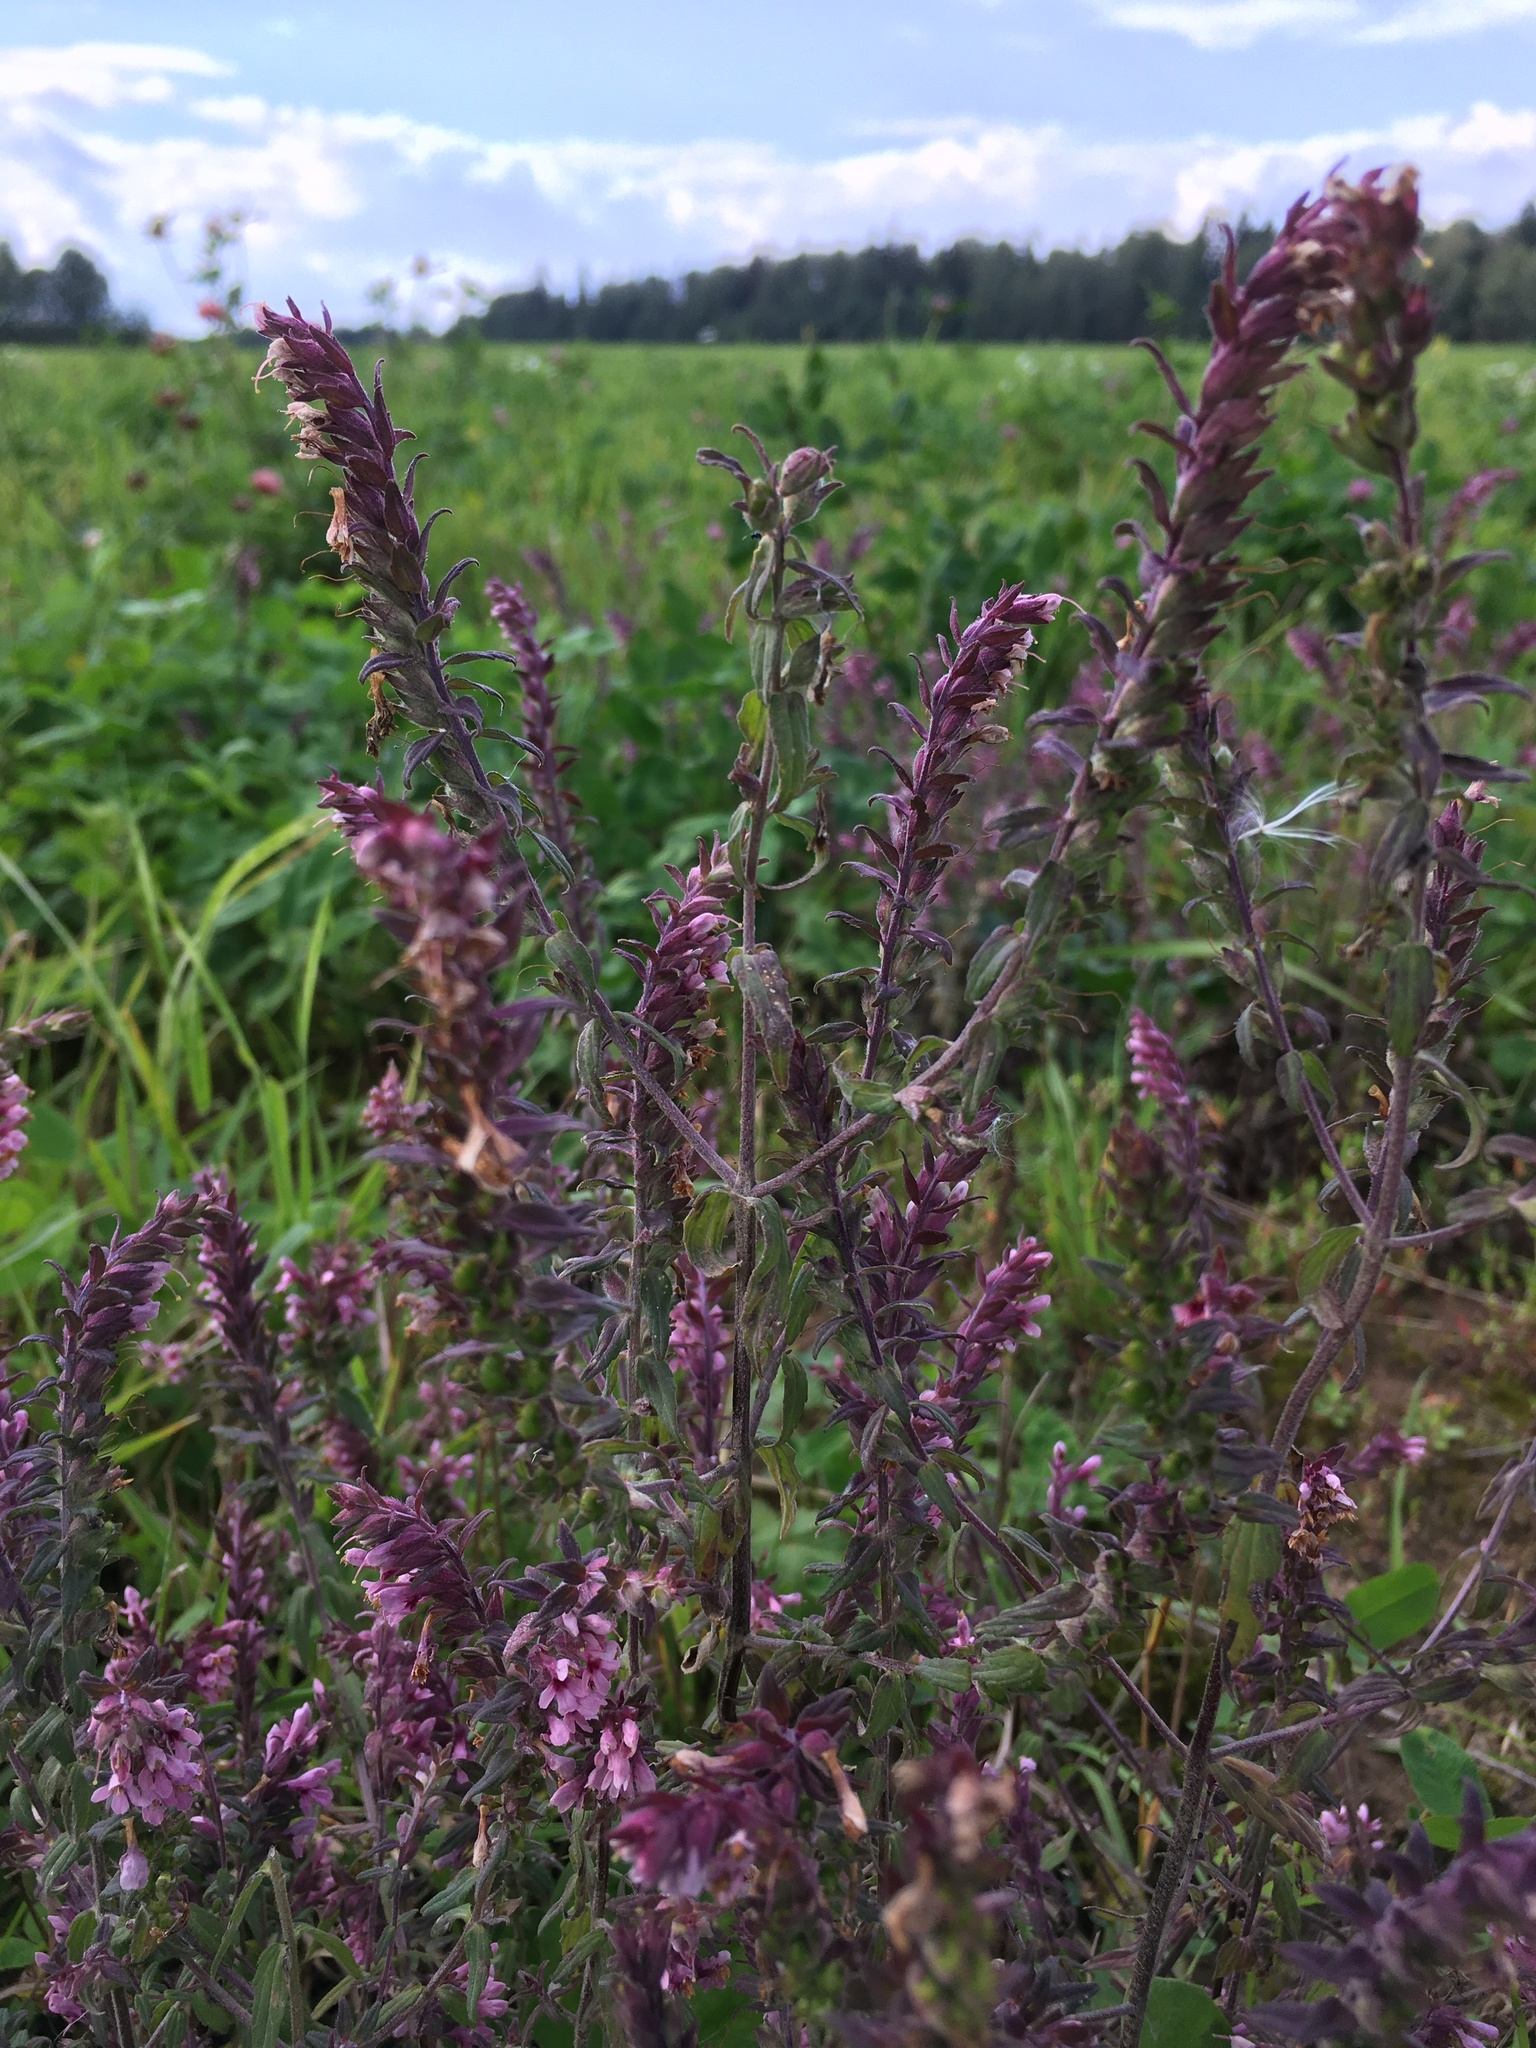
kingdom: Plantae
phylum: Tracheophyta
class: Magnoliopsida
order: Lamiales
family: Orobanchaceae
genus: Odontites
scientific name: Odontites vulgaris
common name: Broomrape
